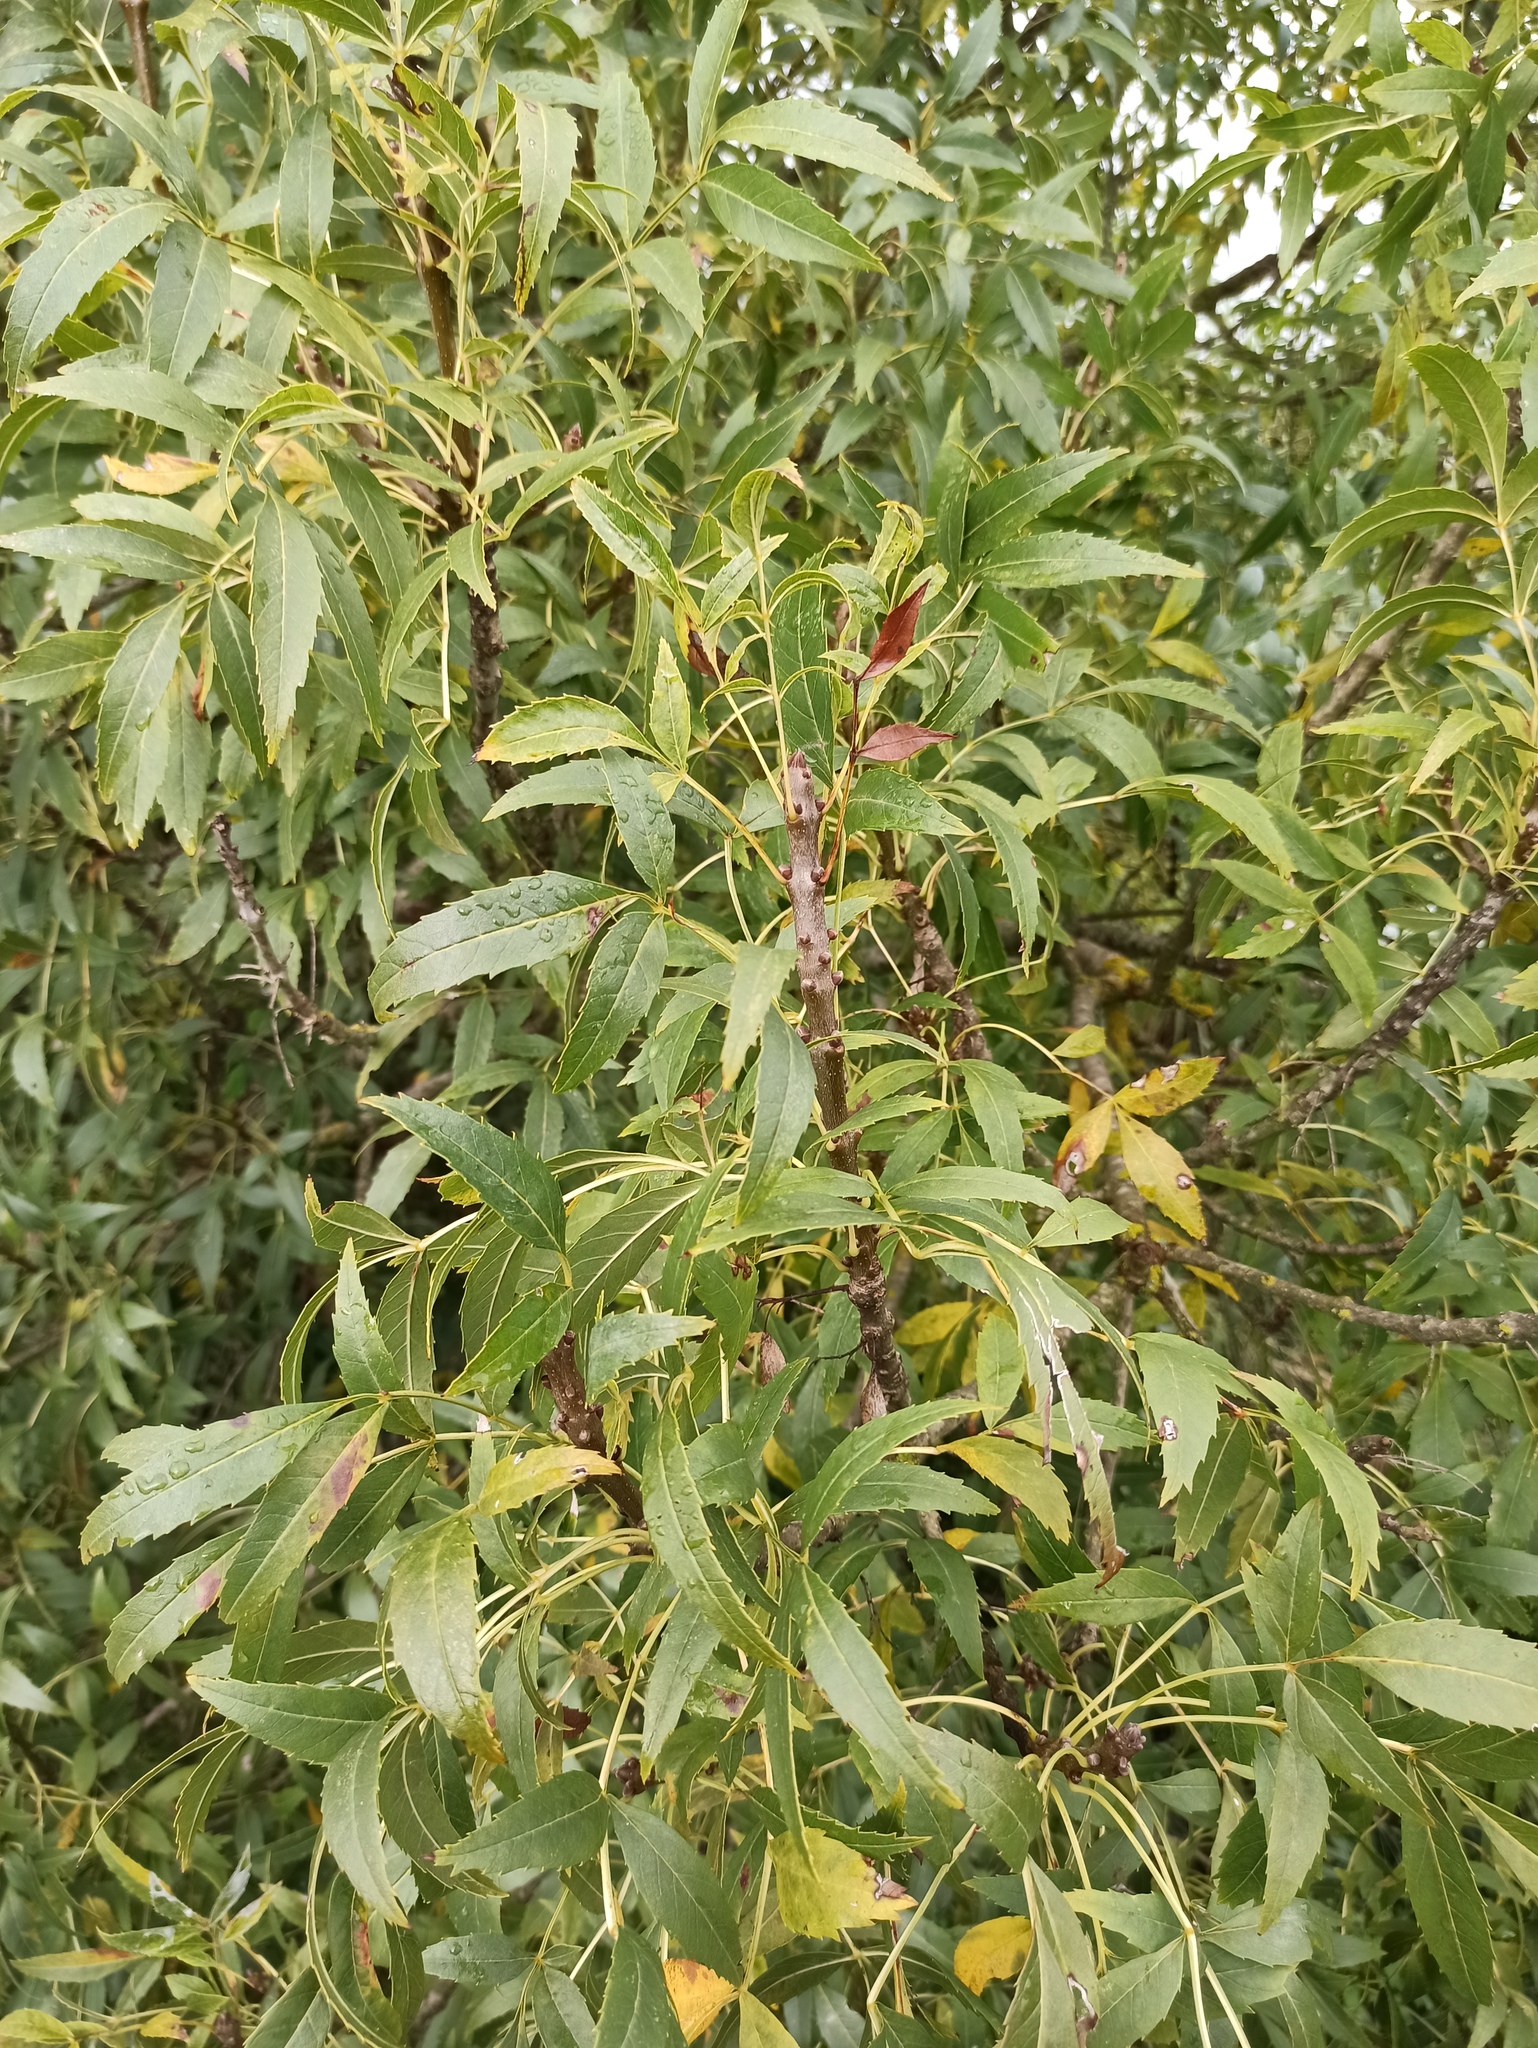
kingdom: Plantae
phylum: Tracheophyta
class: Magnoliopsida
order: Lamiales
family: Oleaceae
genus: Fraxinus
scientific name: Fraxinus angustifolia
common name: Narrow-leafed ash
